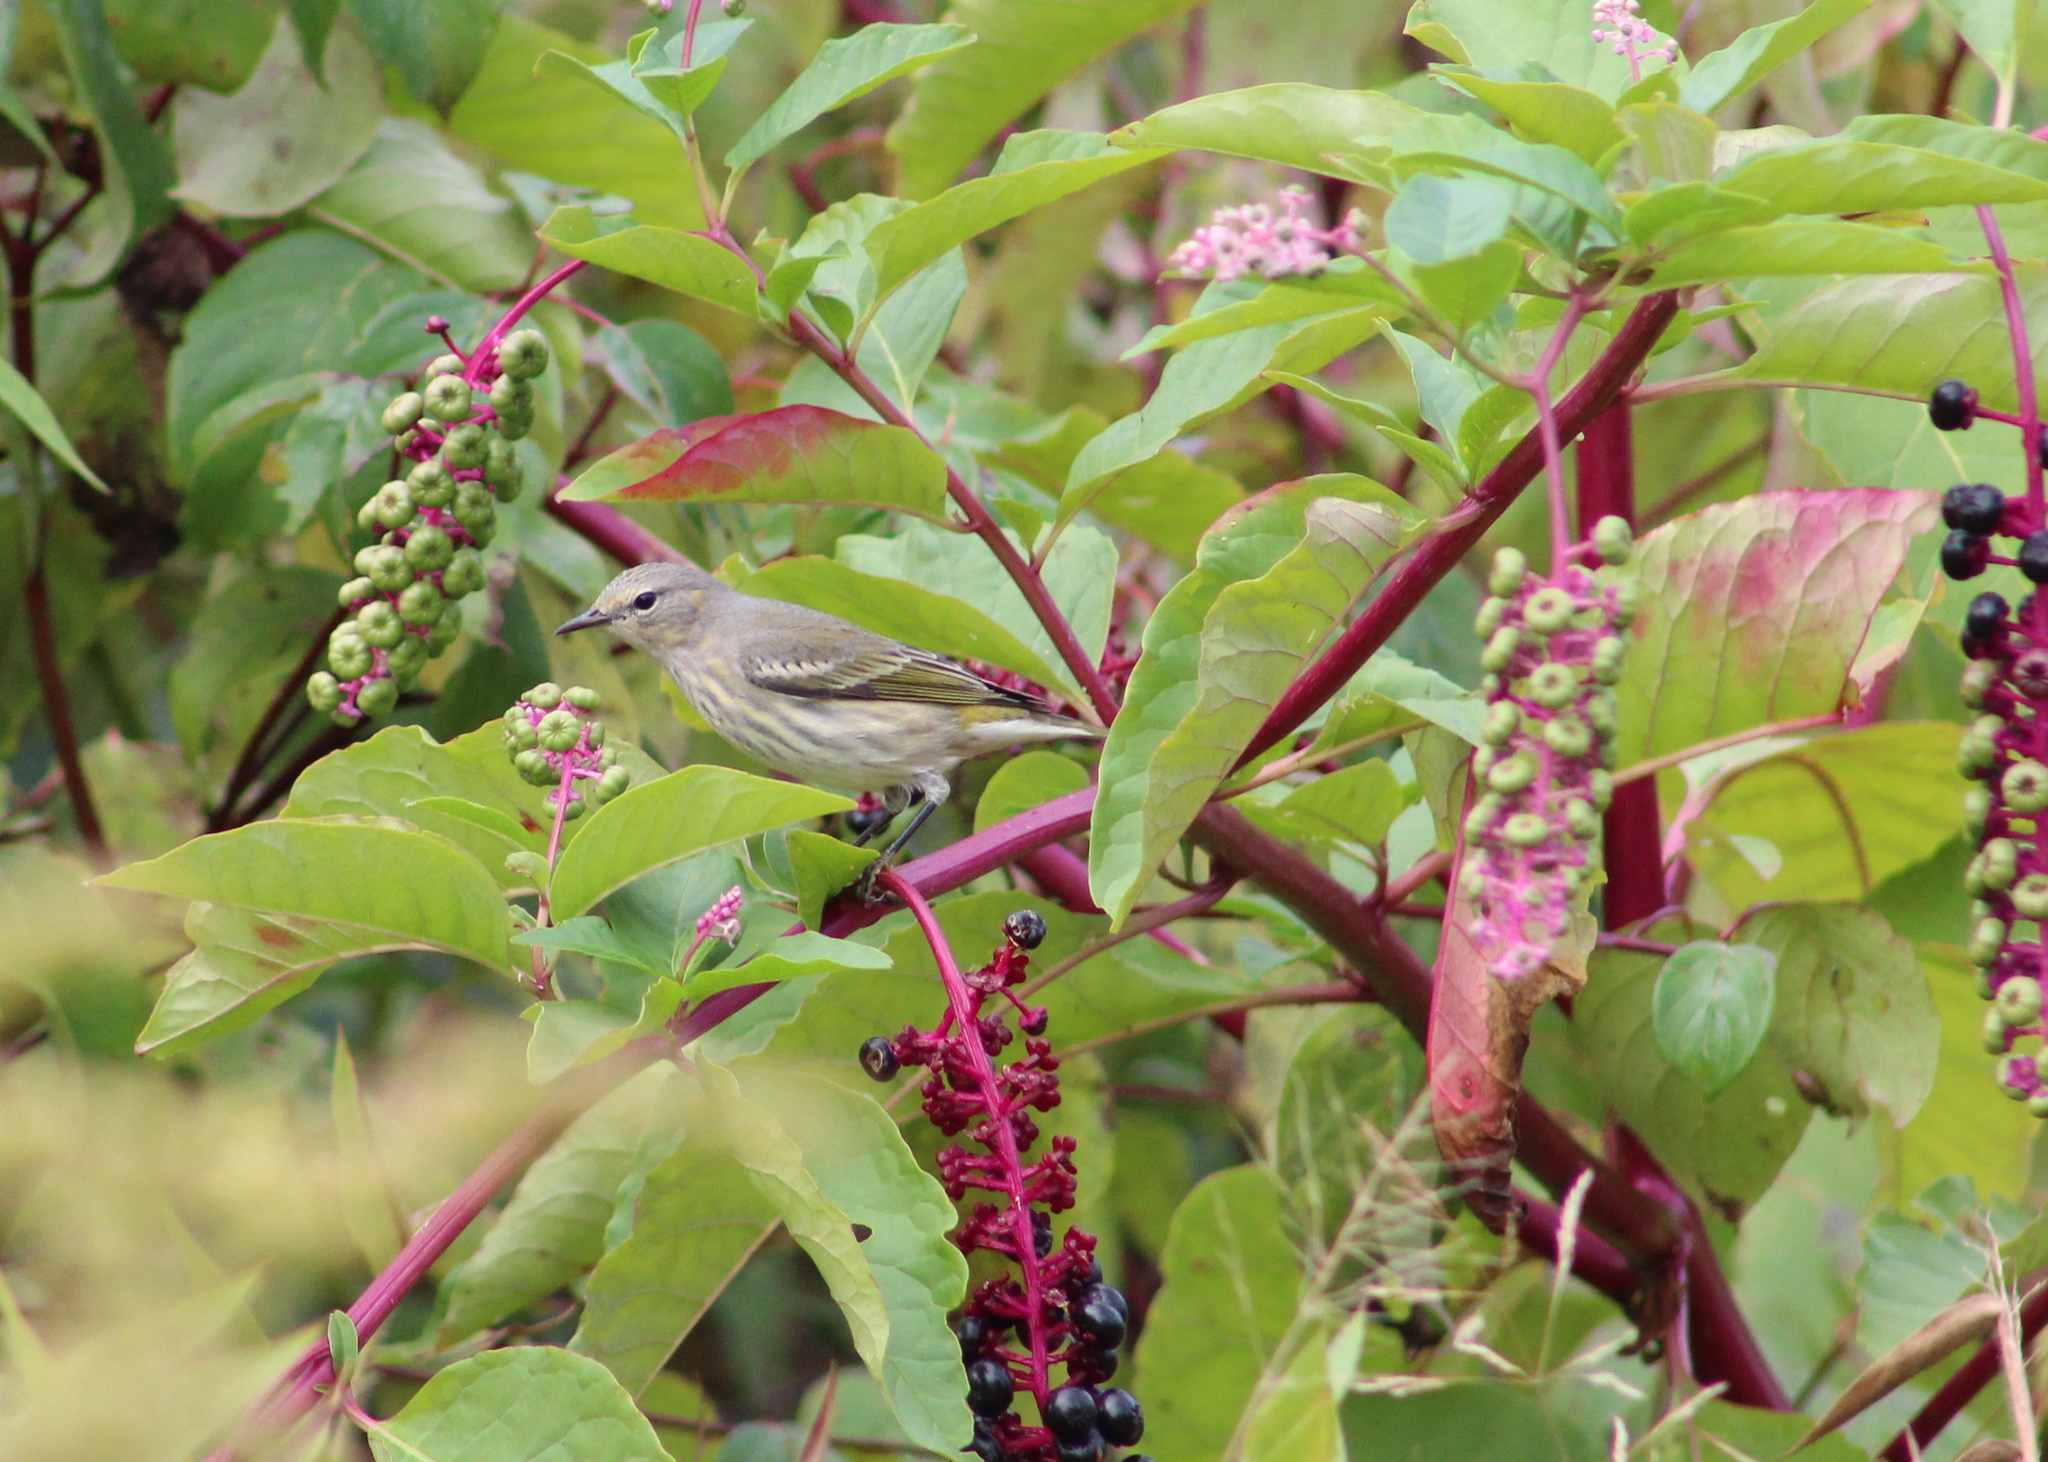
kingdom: Plantae
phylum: Tracheophyta
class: Magnoliopsida
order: Caryophyllales
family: Phytolaccaceae
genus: Phytolacca
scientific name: Phytolacca americana
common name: American pokeweed
